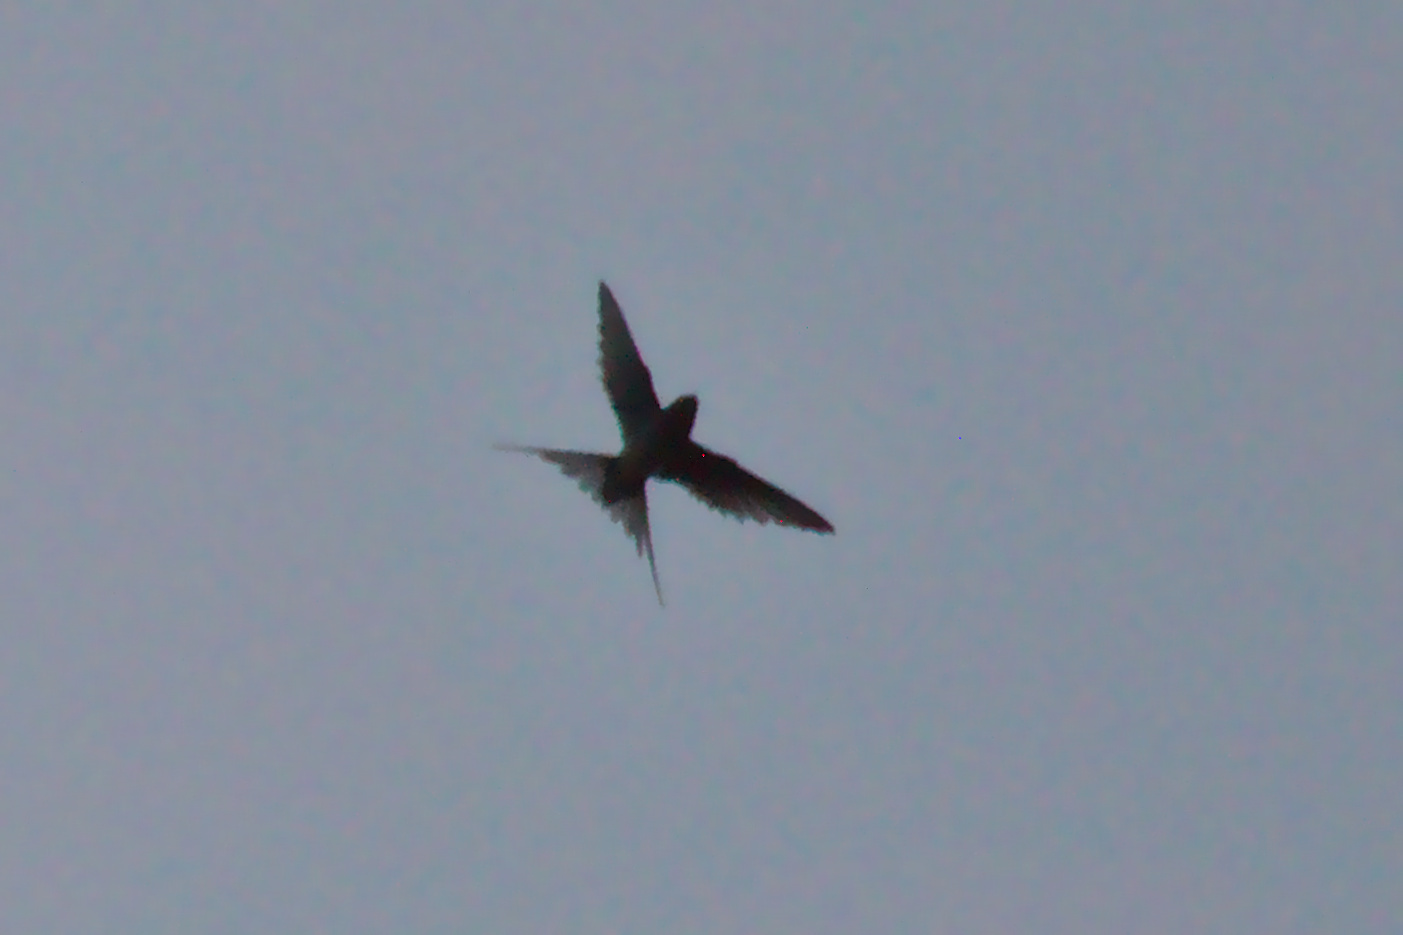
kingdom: Animalia
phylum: Chordata
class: Aves
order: Passeriformes
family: Hirundinidae
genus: Hirundo
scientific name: Hirundo rustica
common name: Barn swallow
